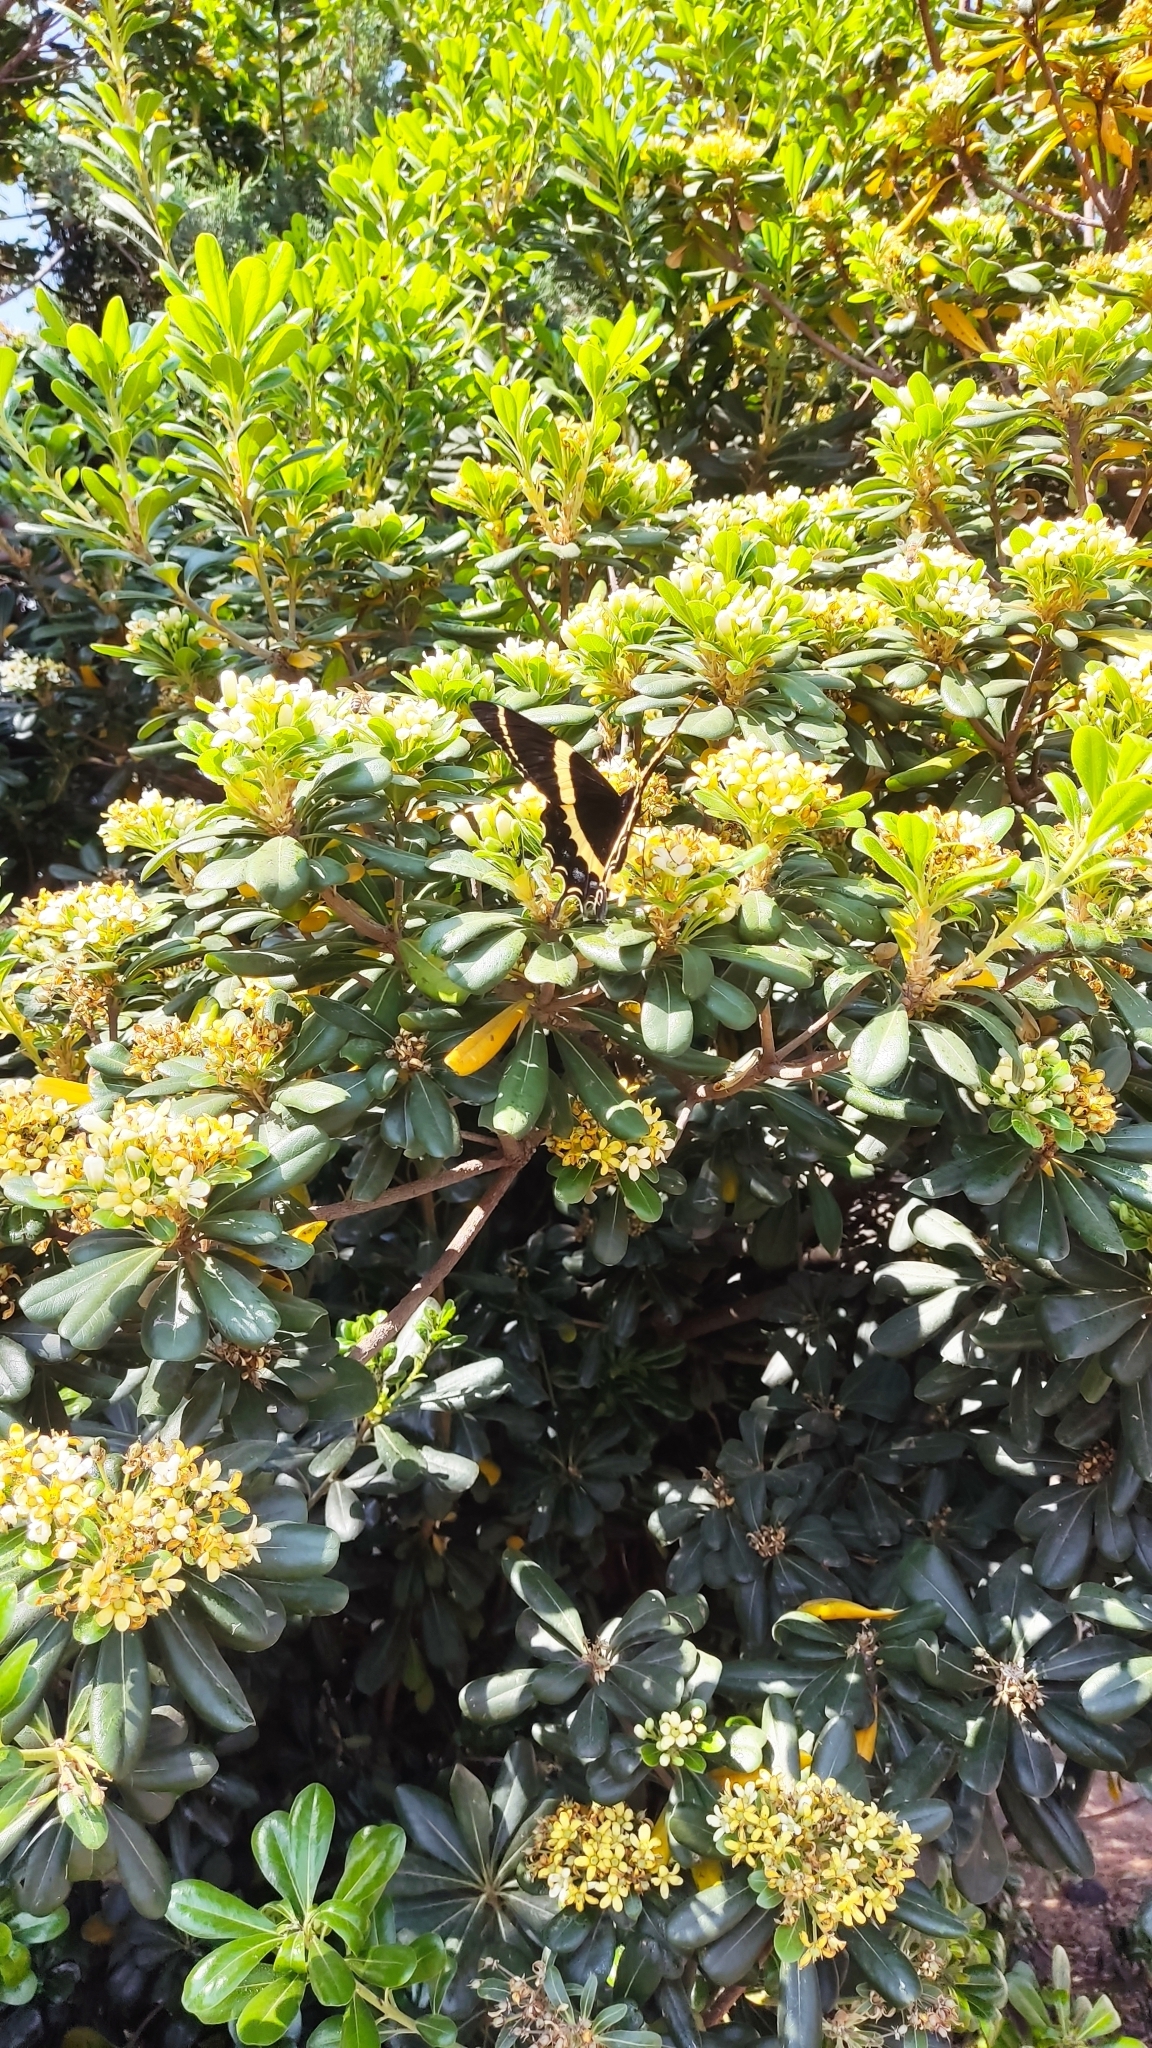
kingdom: Animalia
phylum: Arthropoda
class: Insecta
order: Lepidoptera
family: Papilionidae
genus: Papilio
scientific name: Papilio garamas
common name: Magnificent swallowtail
